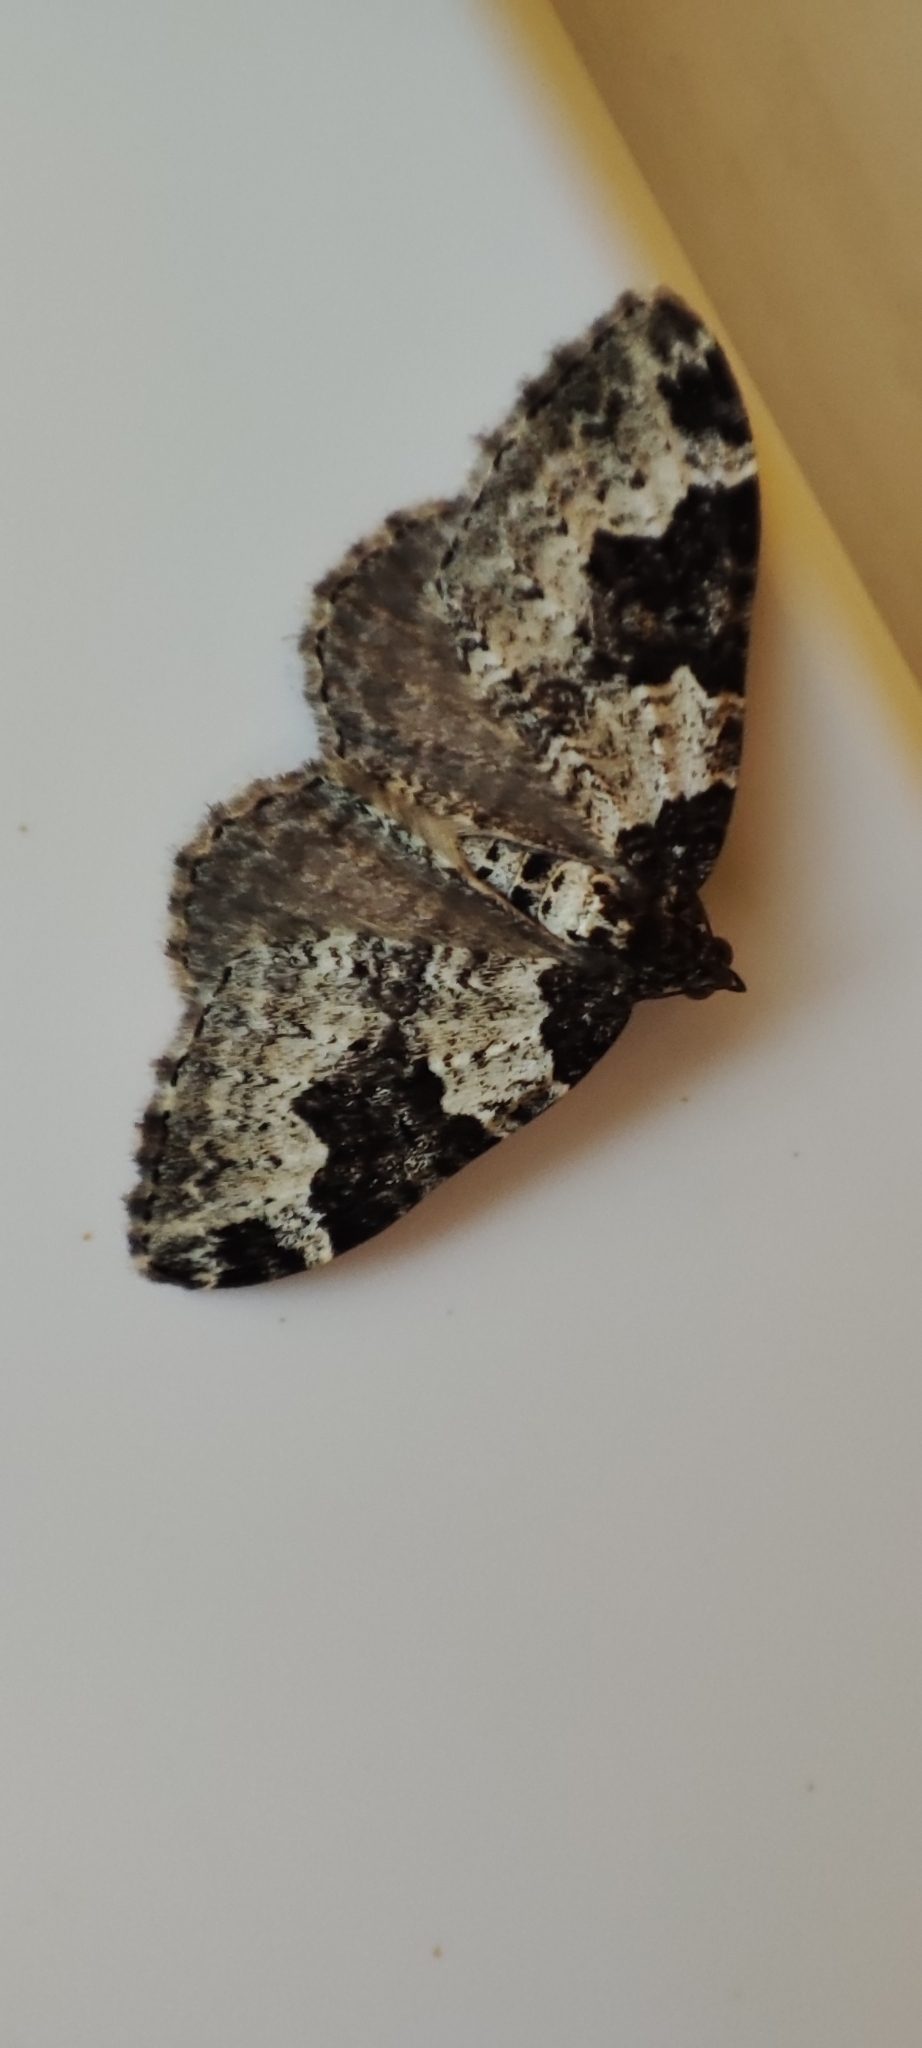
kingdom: Animalia
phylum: Arthropoda
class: Insecta
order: Lepidoptera
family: Geometridae
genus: Xanthorhoe
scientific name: Xanthorhoe fluctuata
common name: Garden carpet
